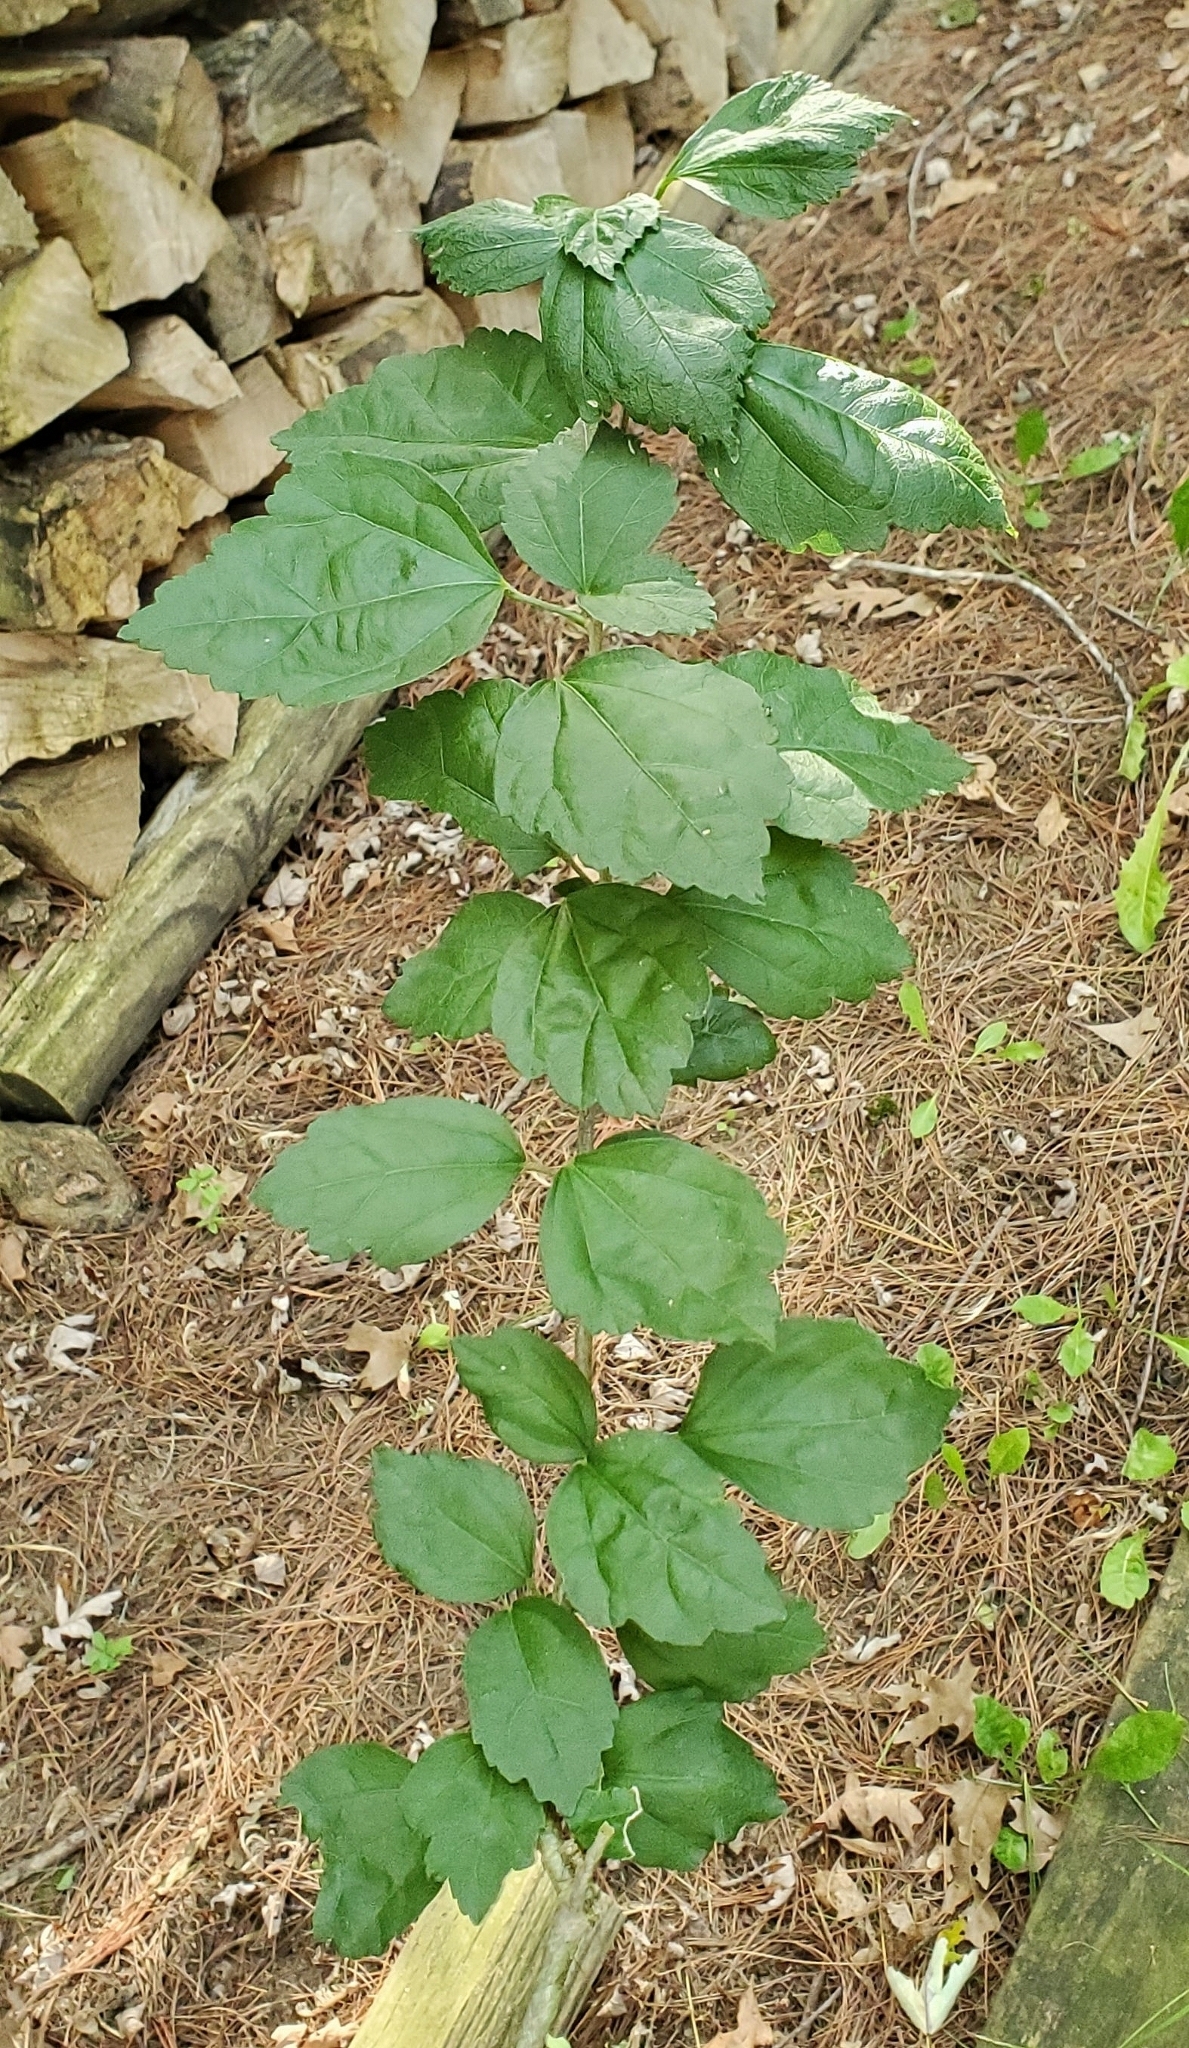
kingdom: Plantae
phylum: Tracheophyta
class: Magnoliopsida
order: Malvales
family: Malvaceae
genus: Hibiscus
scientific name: Hibiscus syriacus
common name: Syrian ketmia
